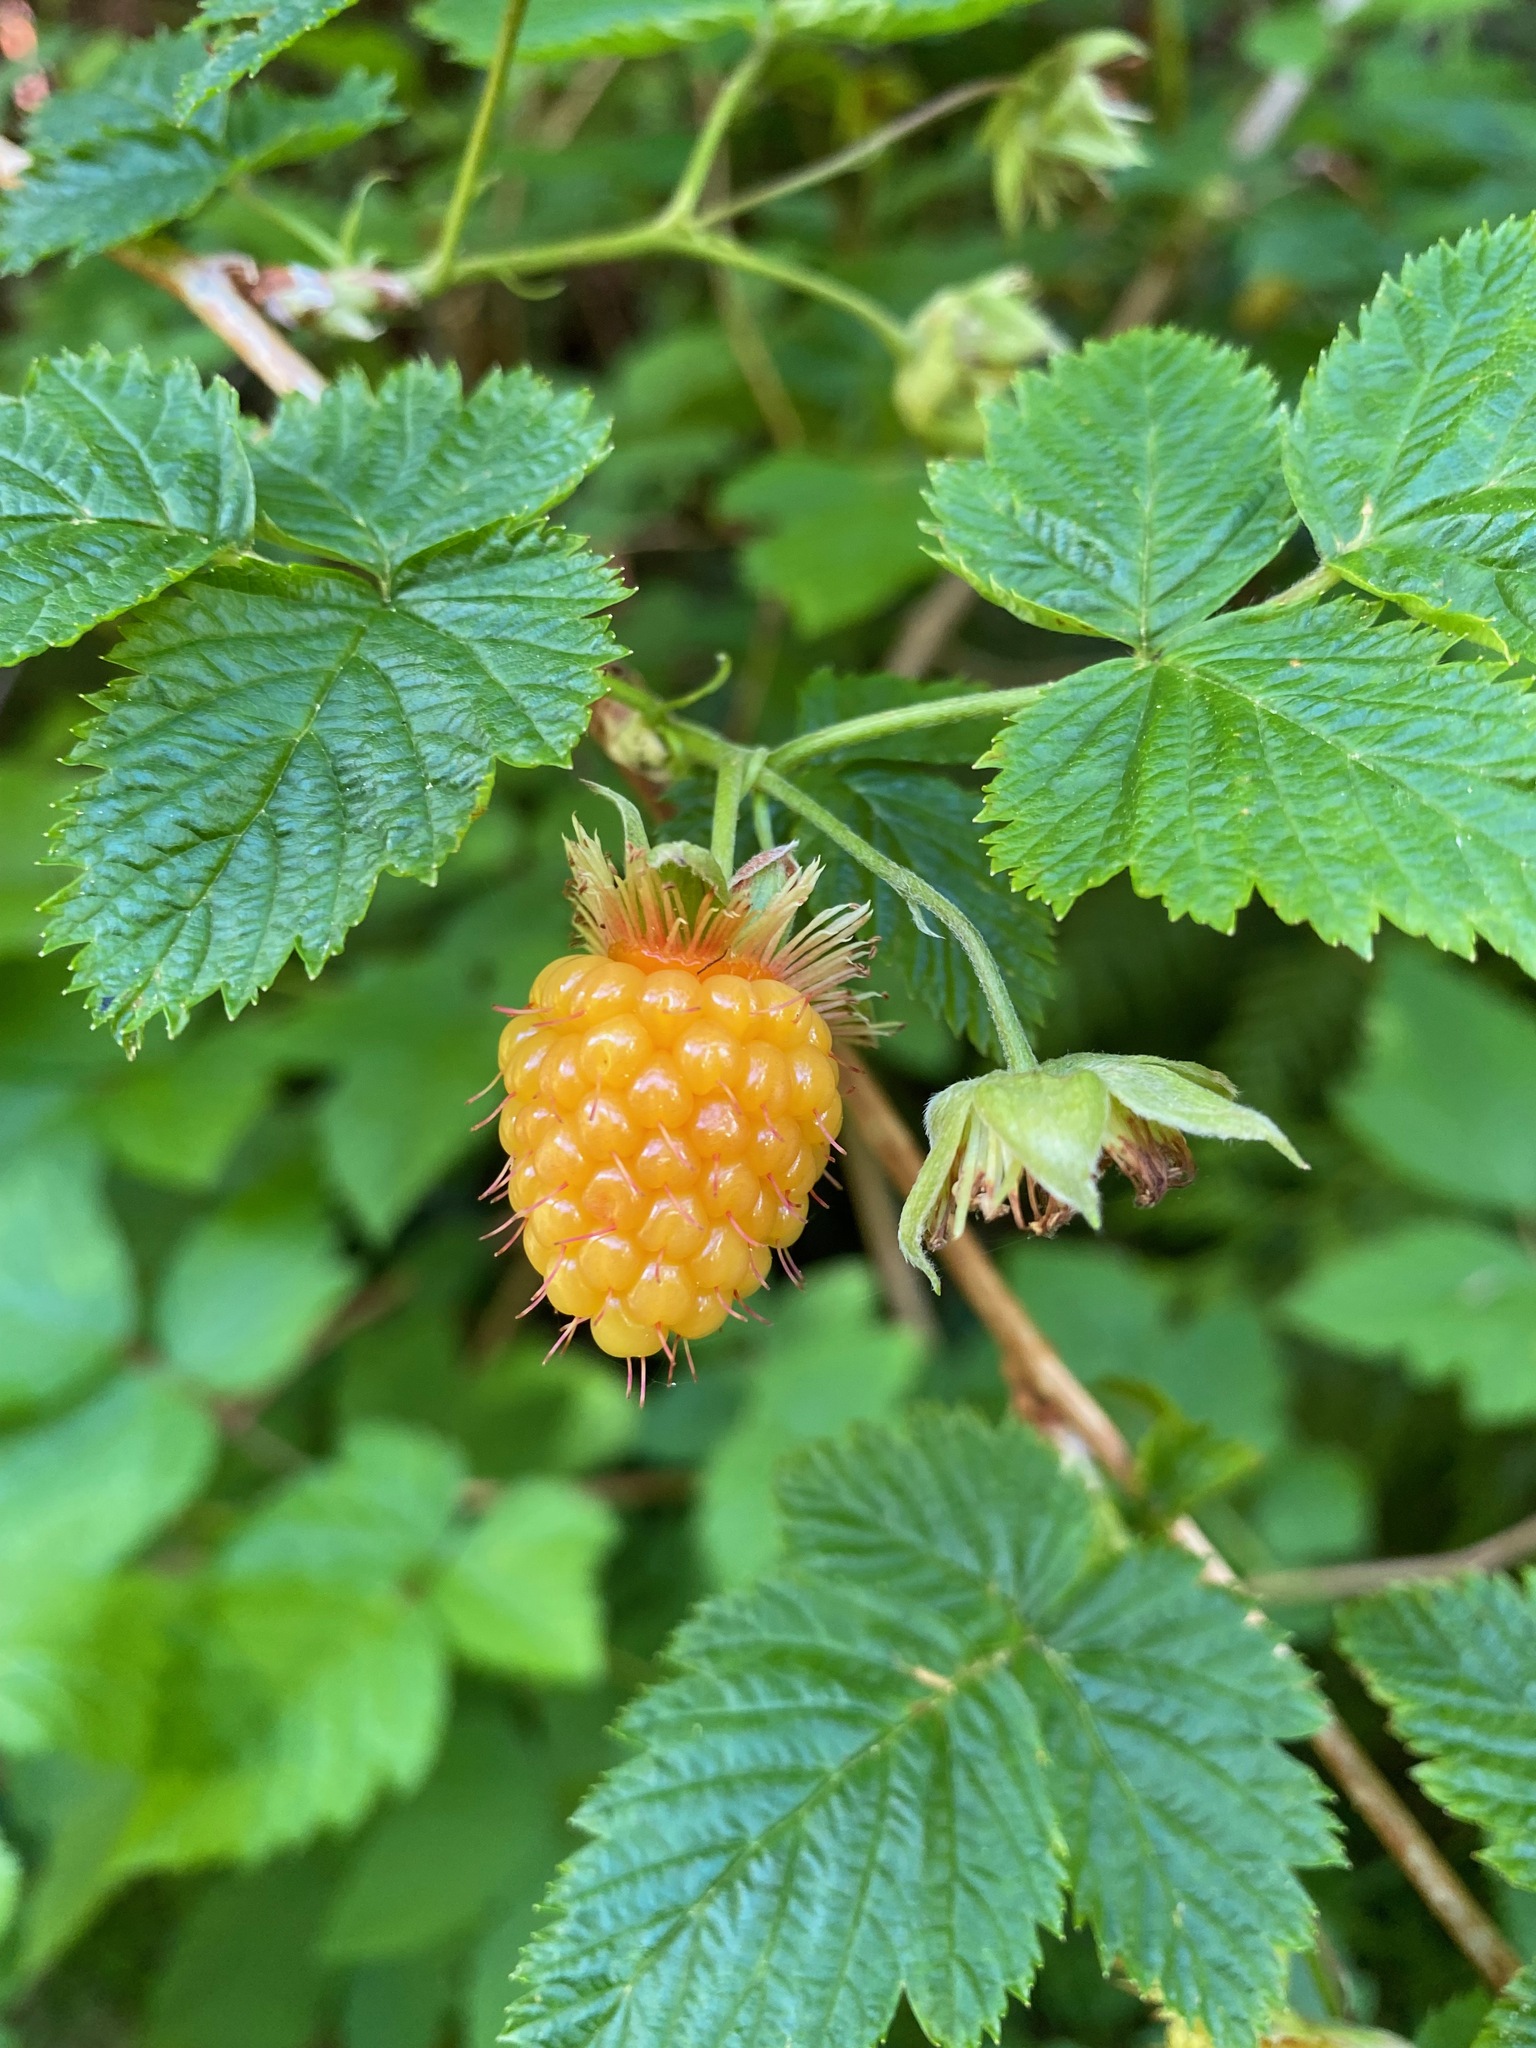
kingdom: Plantae
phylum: Tracheophyta
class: Magnoliopsida
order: Rosales
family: Rosaceae
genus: Rubus
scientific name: Rubus spectabilis
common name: Salmonberry
